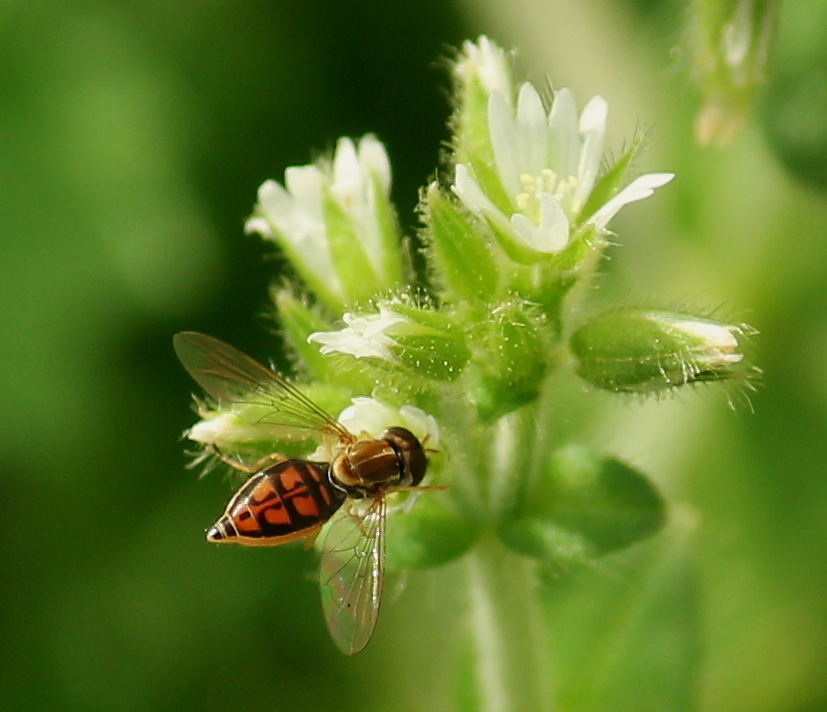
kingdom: Animalia
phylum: Arthropoda
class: Insecta
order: Diptera
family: Syrphidae
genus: Toxomerus
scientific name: Toxomerus marginatus
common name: Syrphid fly
